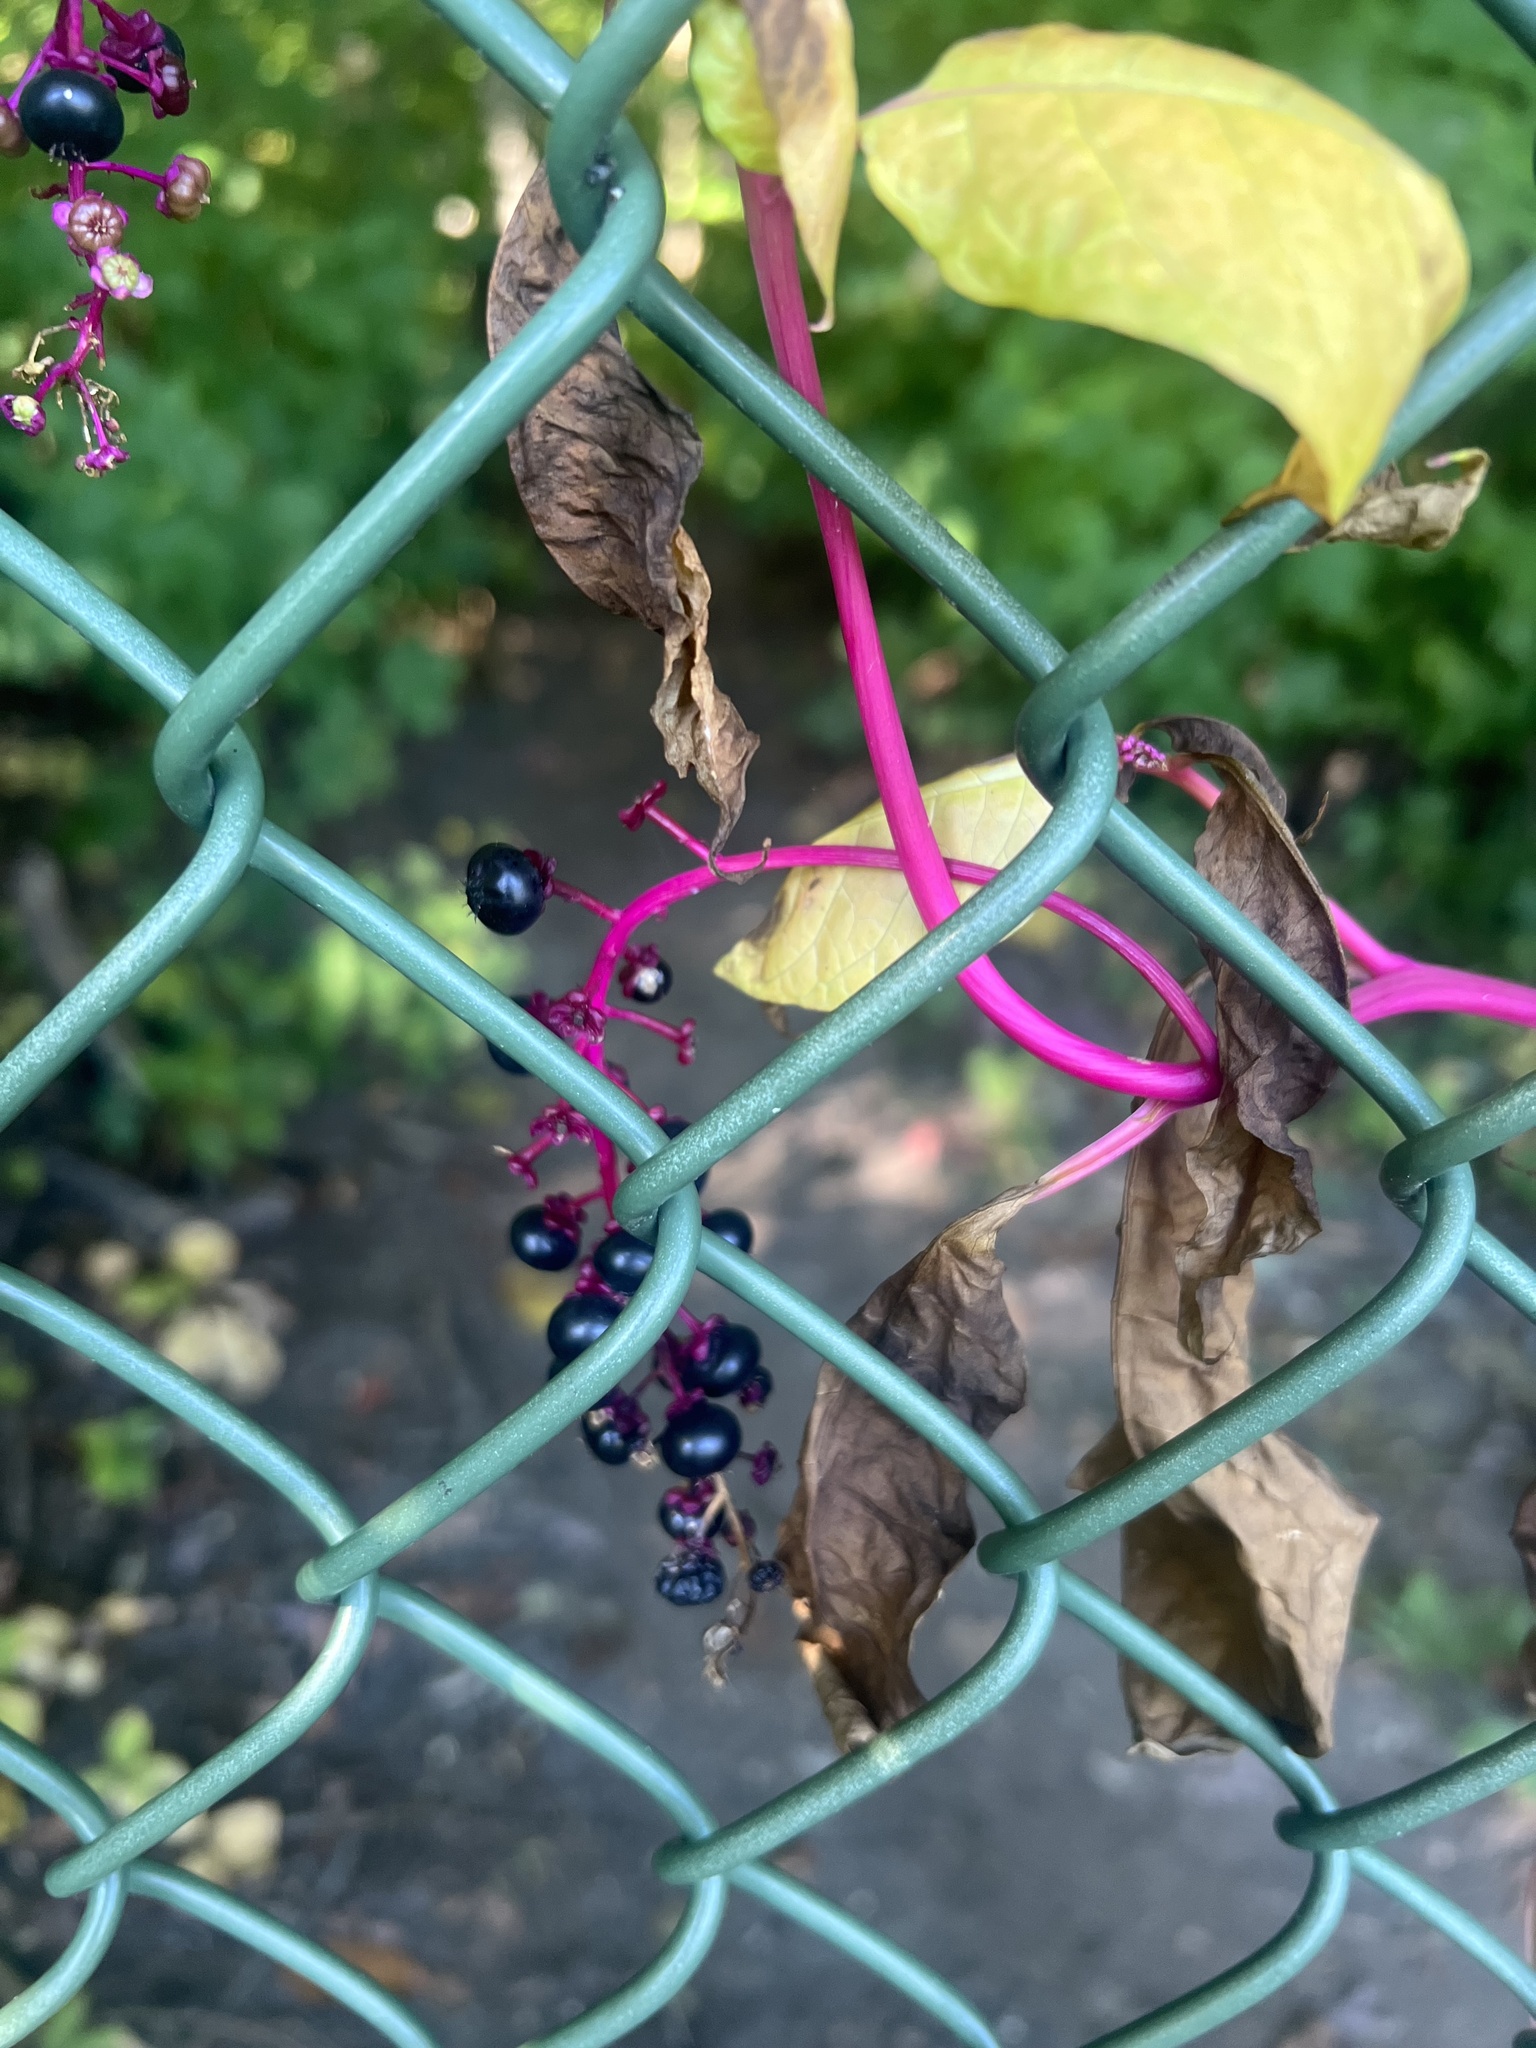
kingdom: Plantae
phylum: Tracheophyta
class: Magnoliopsida
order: Caryophyllales
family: Phytolaccaceae
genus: Phytolacca
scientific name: Phytolacca americana
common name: American pokeweed
